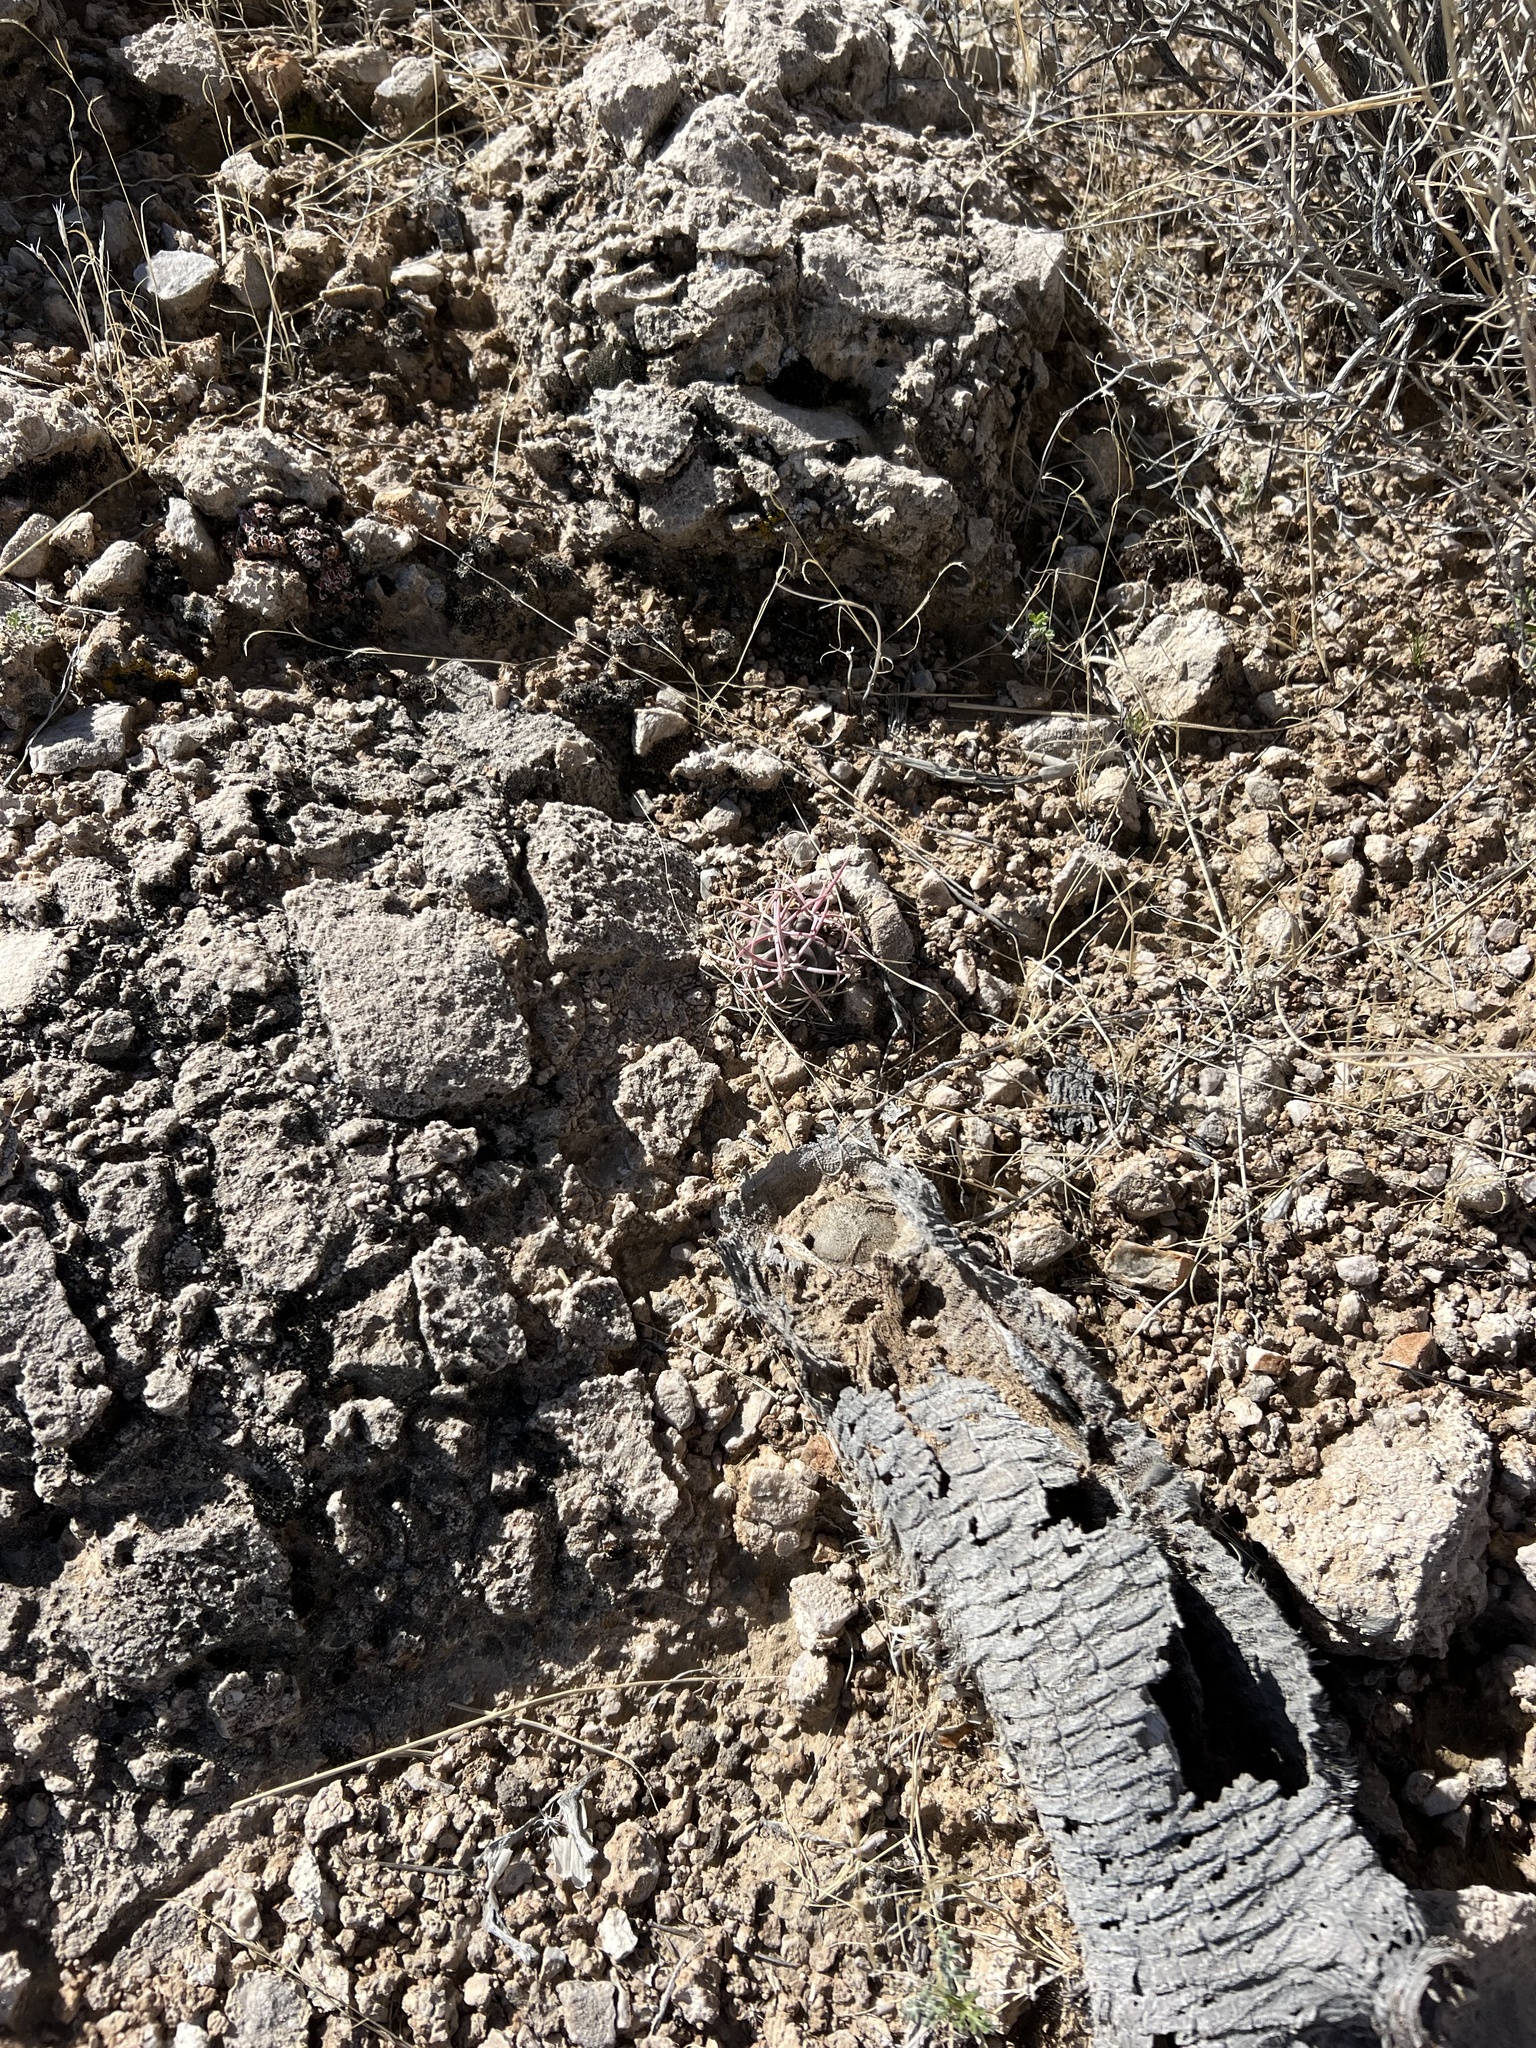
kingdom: Plantae
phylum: Tracheophyta
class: Magnoliopsida
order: Caryophyllales
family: Cactaceae
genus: Echinocactus
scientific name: Echinocactus polycephalus
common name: Cottontop cactus
